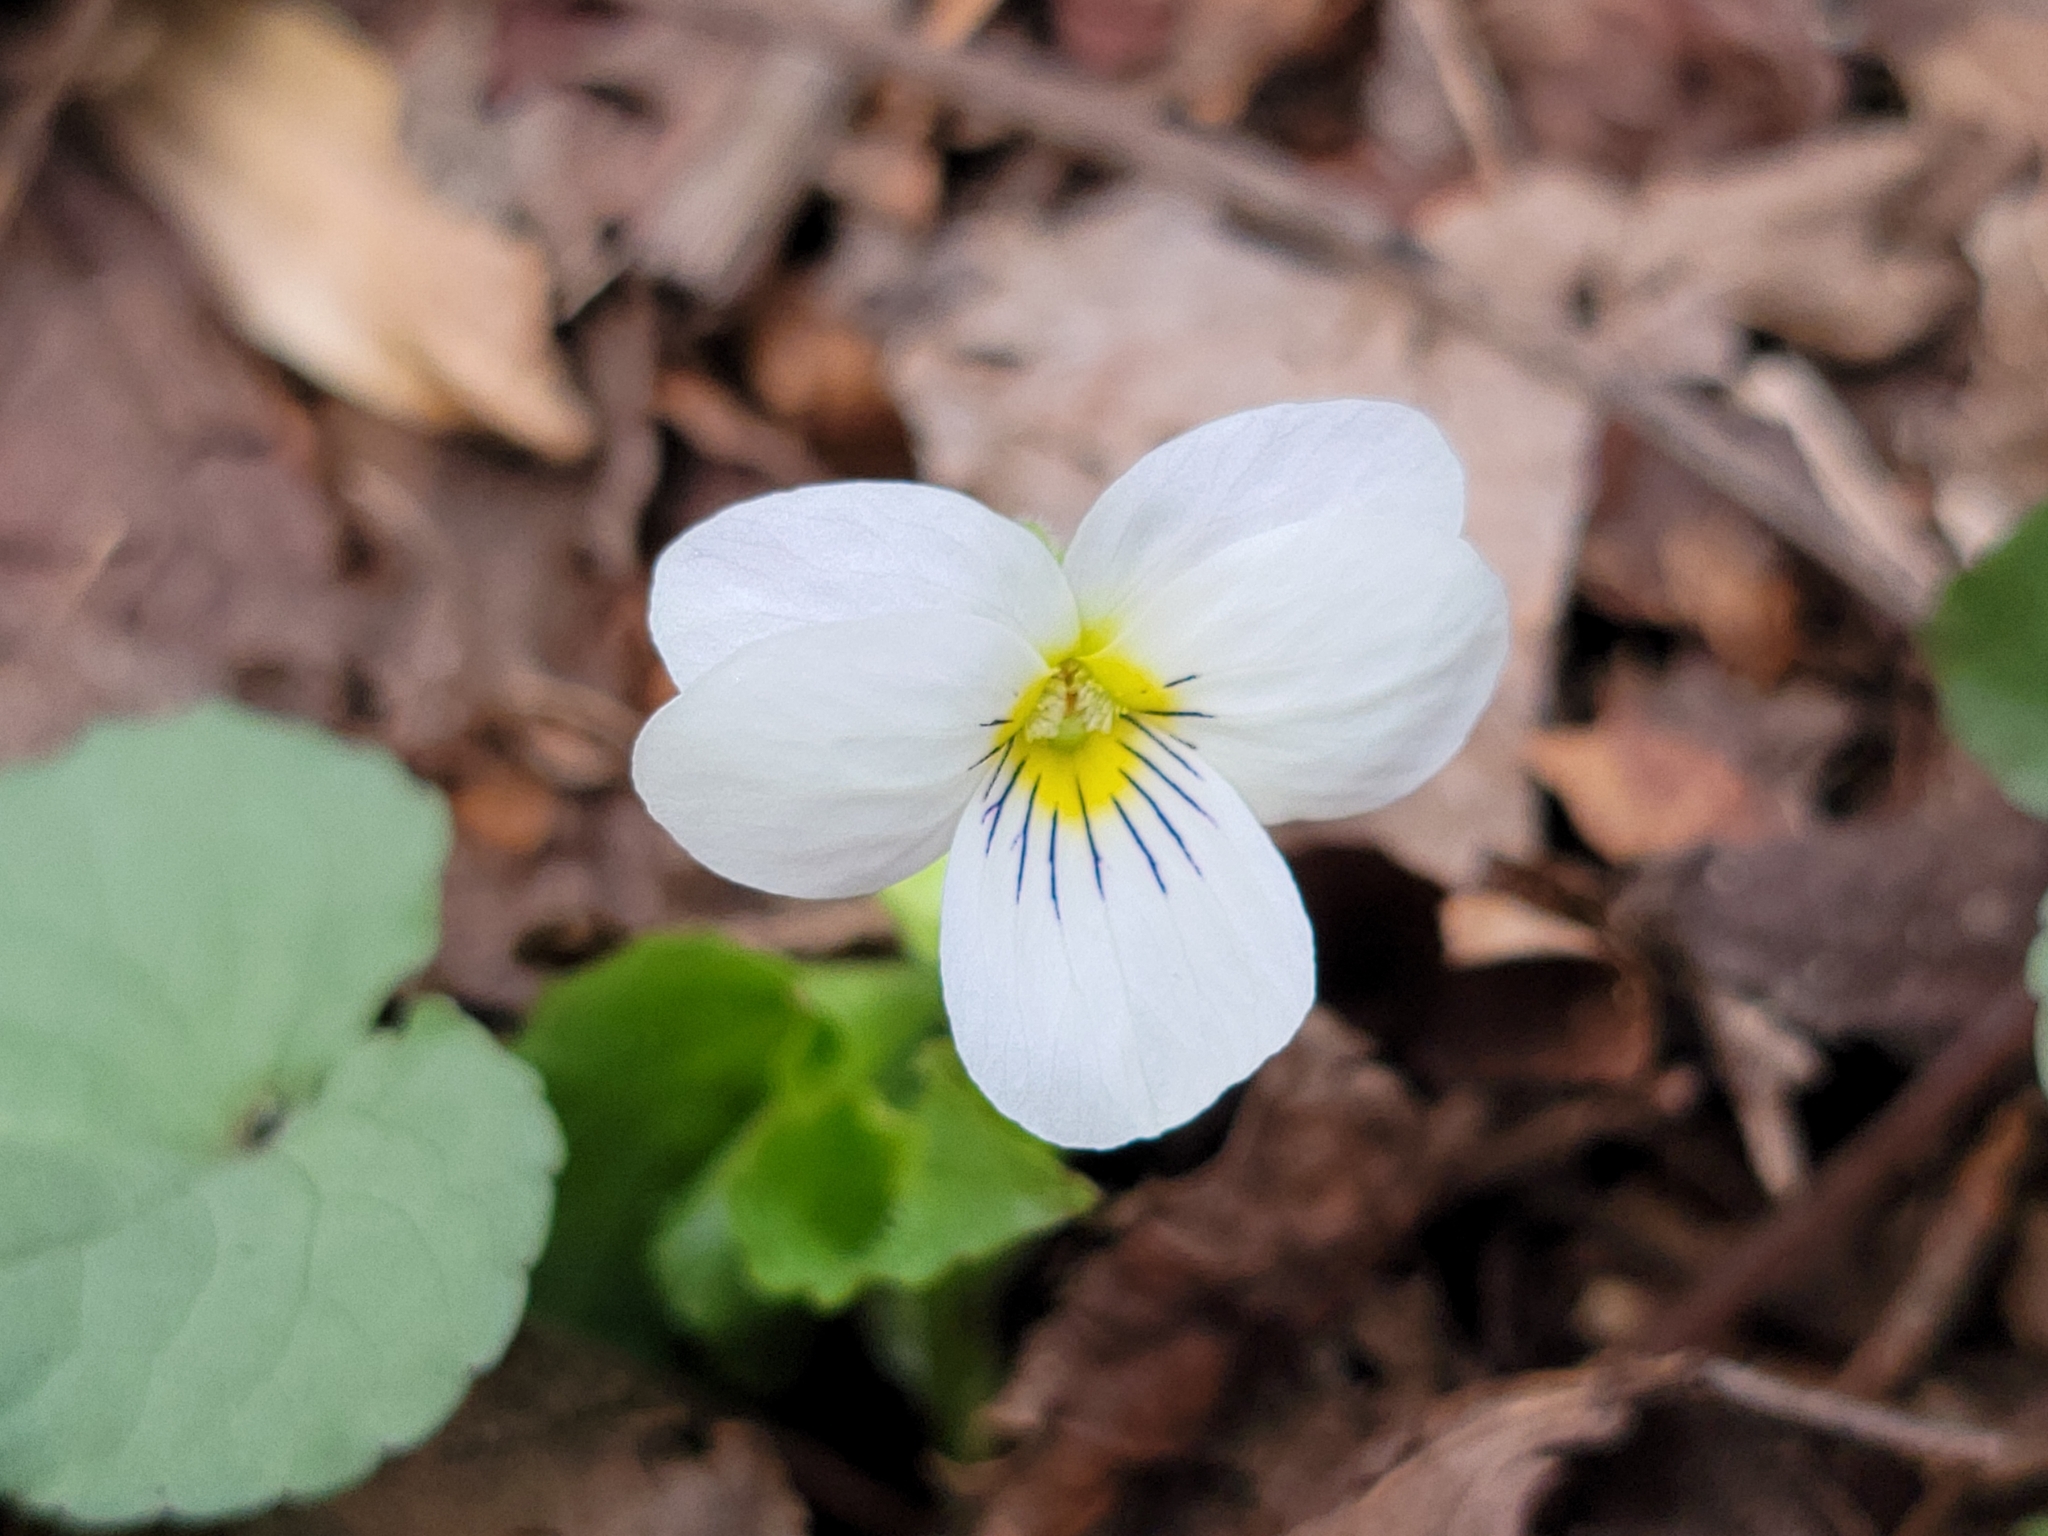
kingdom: Plantae
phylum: Tracheophyta
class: Magnoliopsida
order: Malpighiales
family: Violaceae
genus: Viola
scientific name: Viola canadensis
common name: Canada violet
